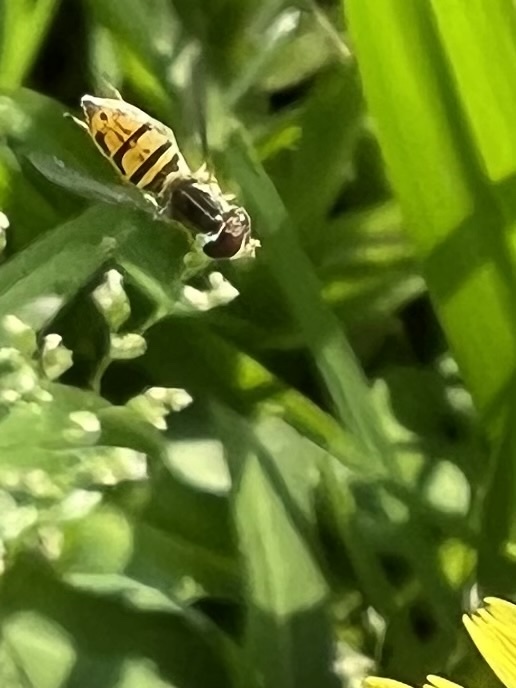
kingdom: Animalia
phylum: Arthropoda
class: Insecta
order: Diptera
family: Syrphidae
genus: Toxomerus
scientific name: Toxomerus marginatus
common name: Syrphid fly
